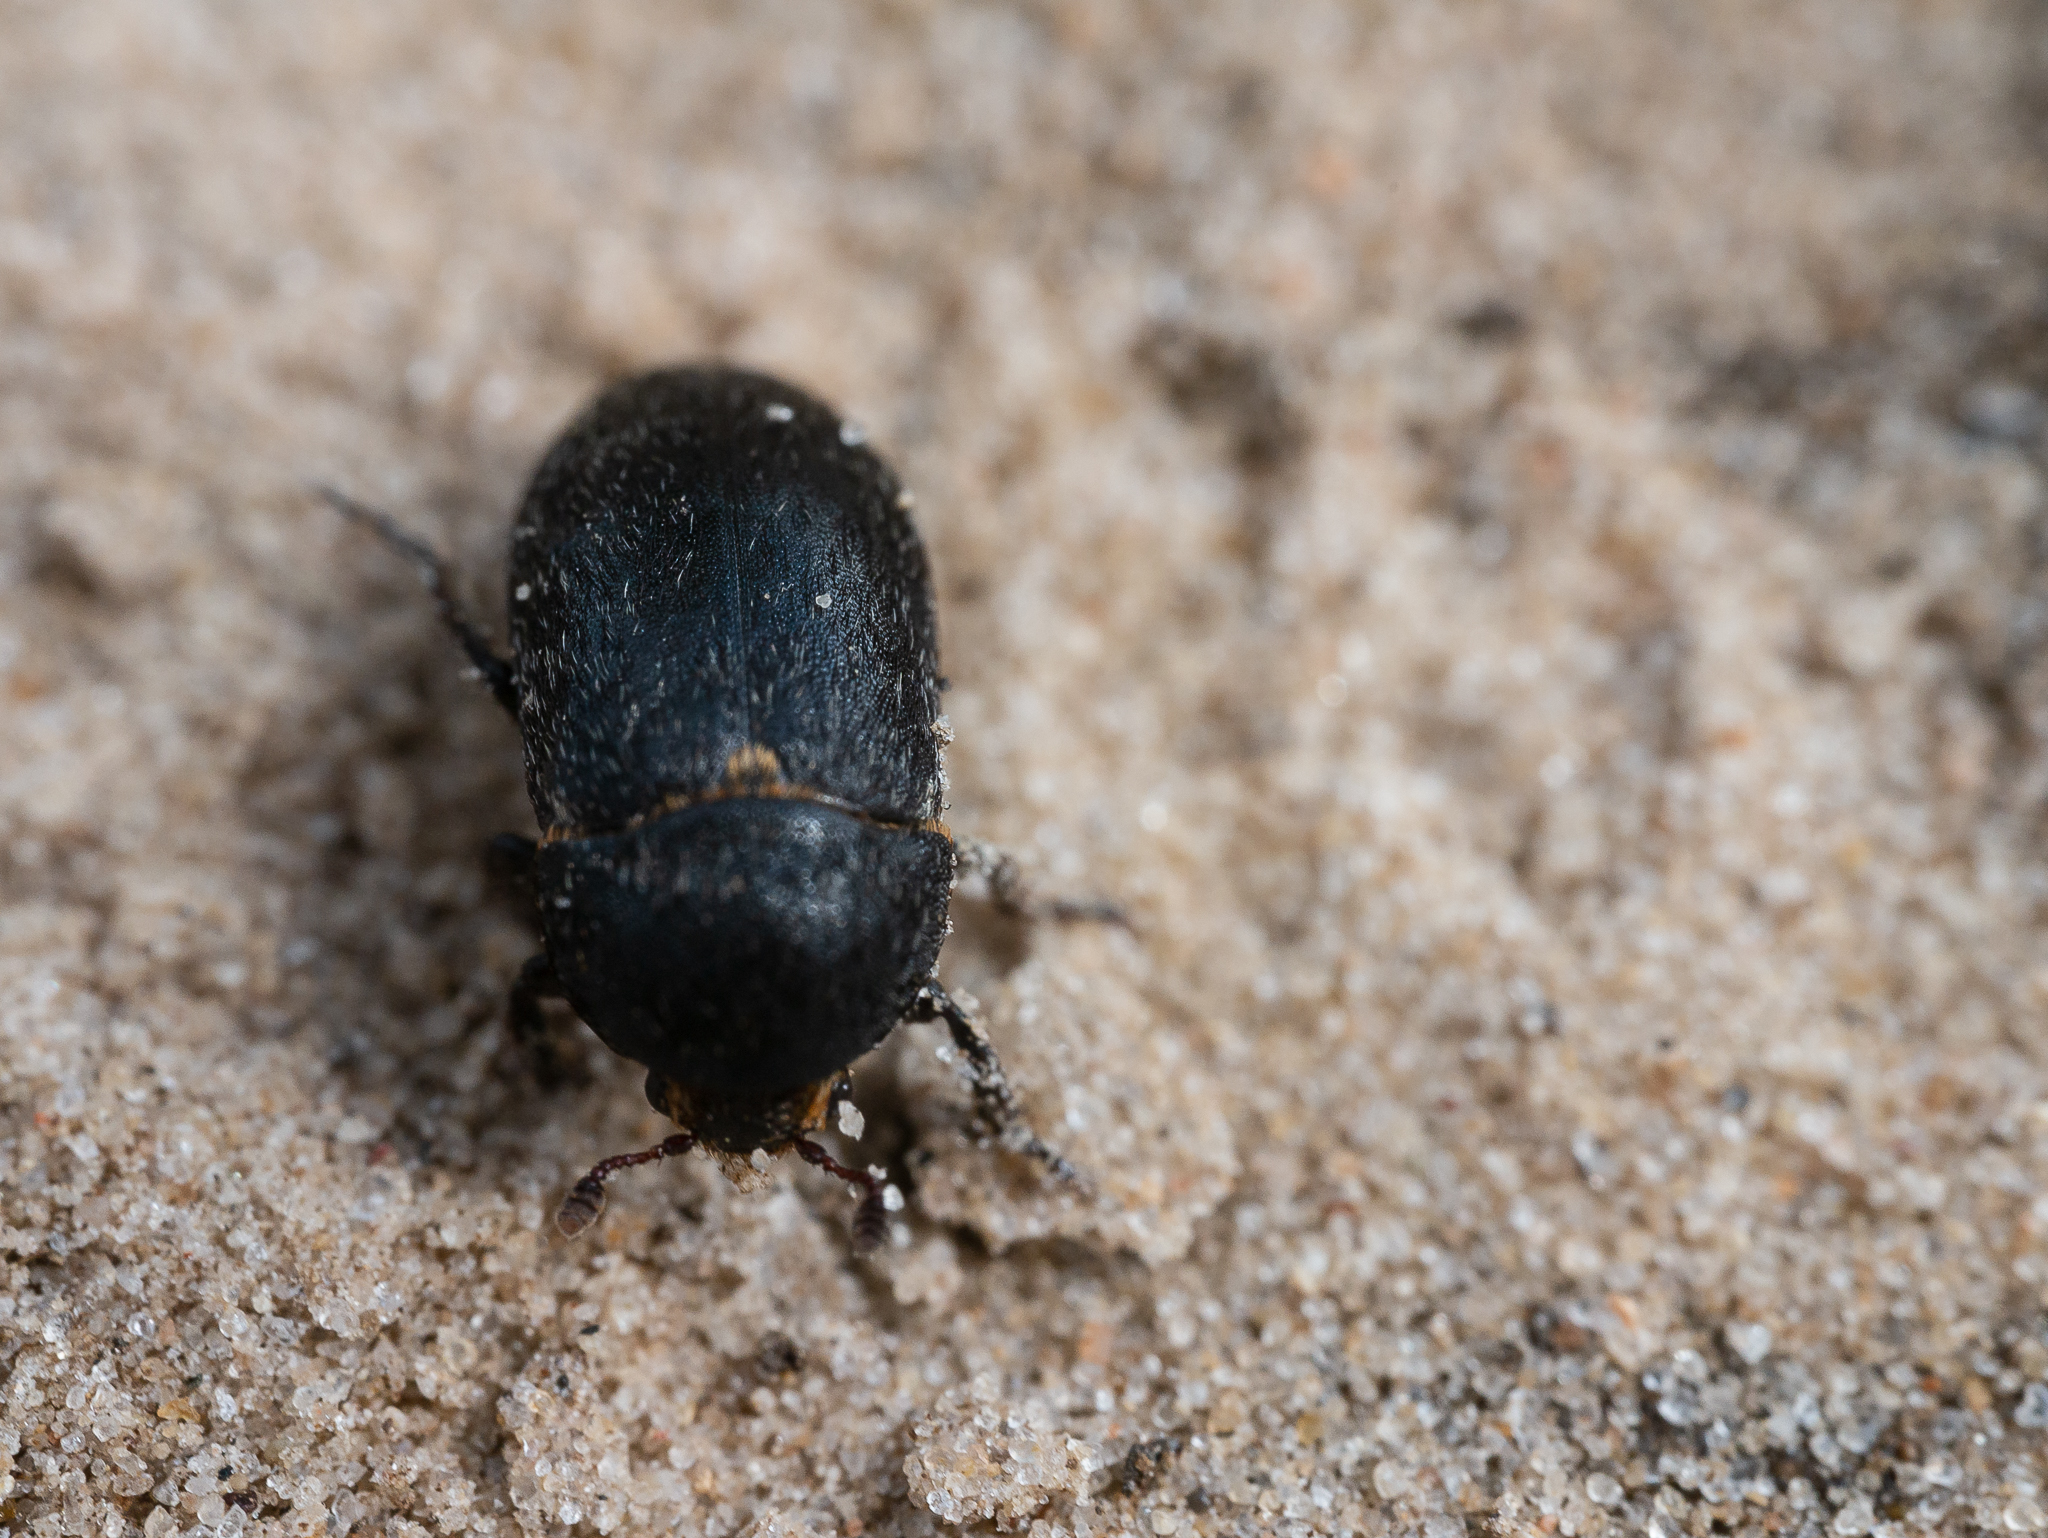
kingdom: Animalia
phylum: Arthropoda
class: Insecta
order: Coleoptera
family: Dermestidae
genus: Dermestes
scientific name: Dermestes laniarius
